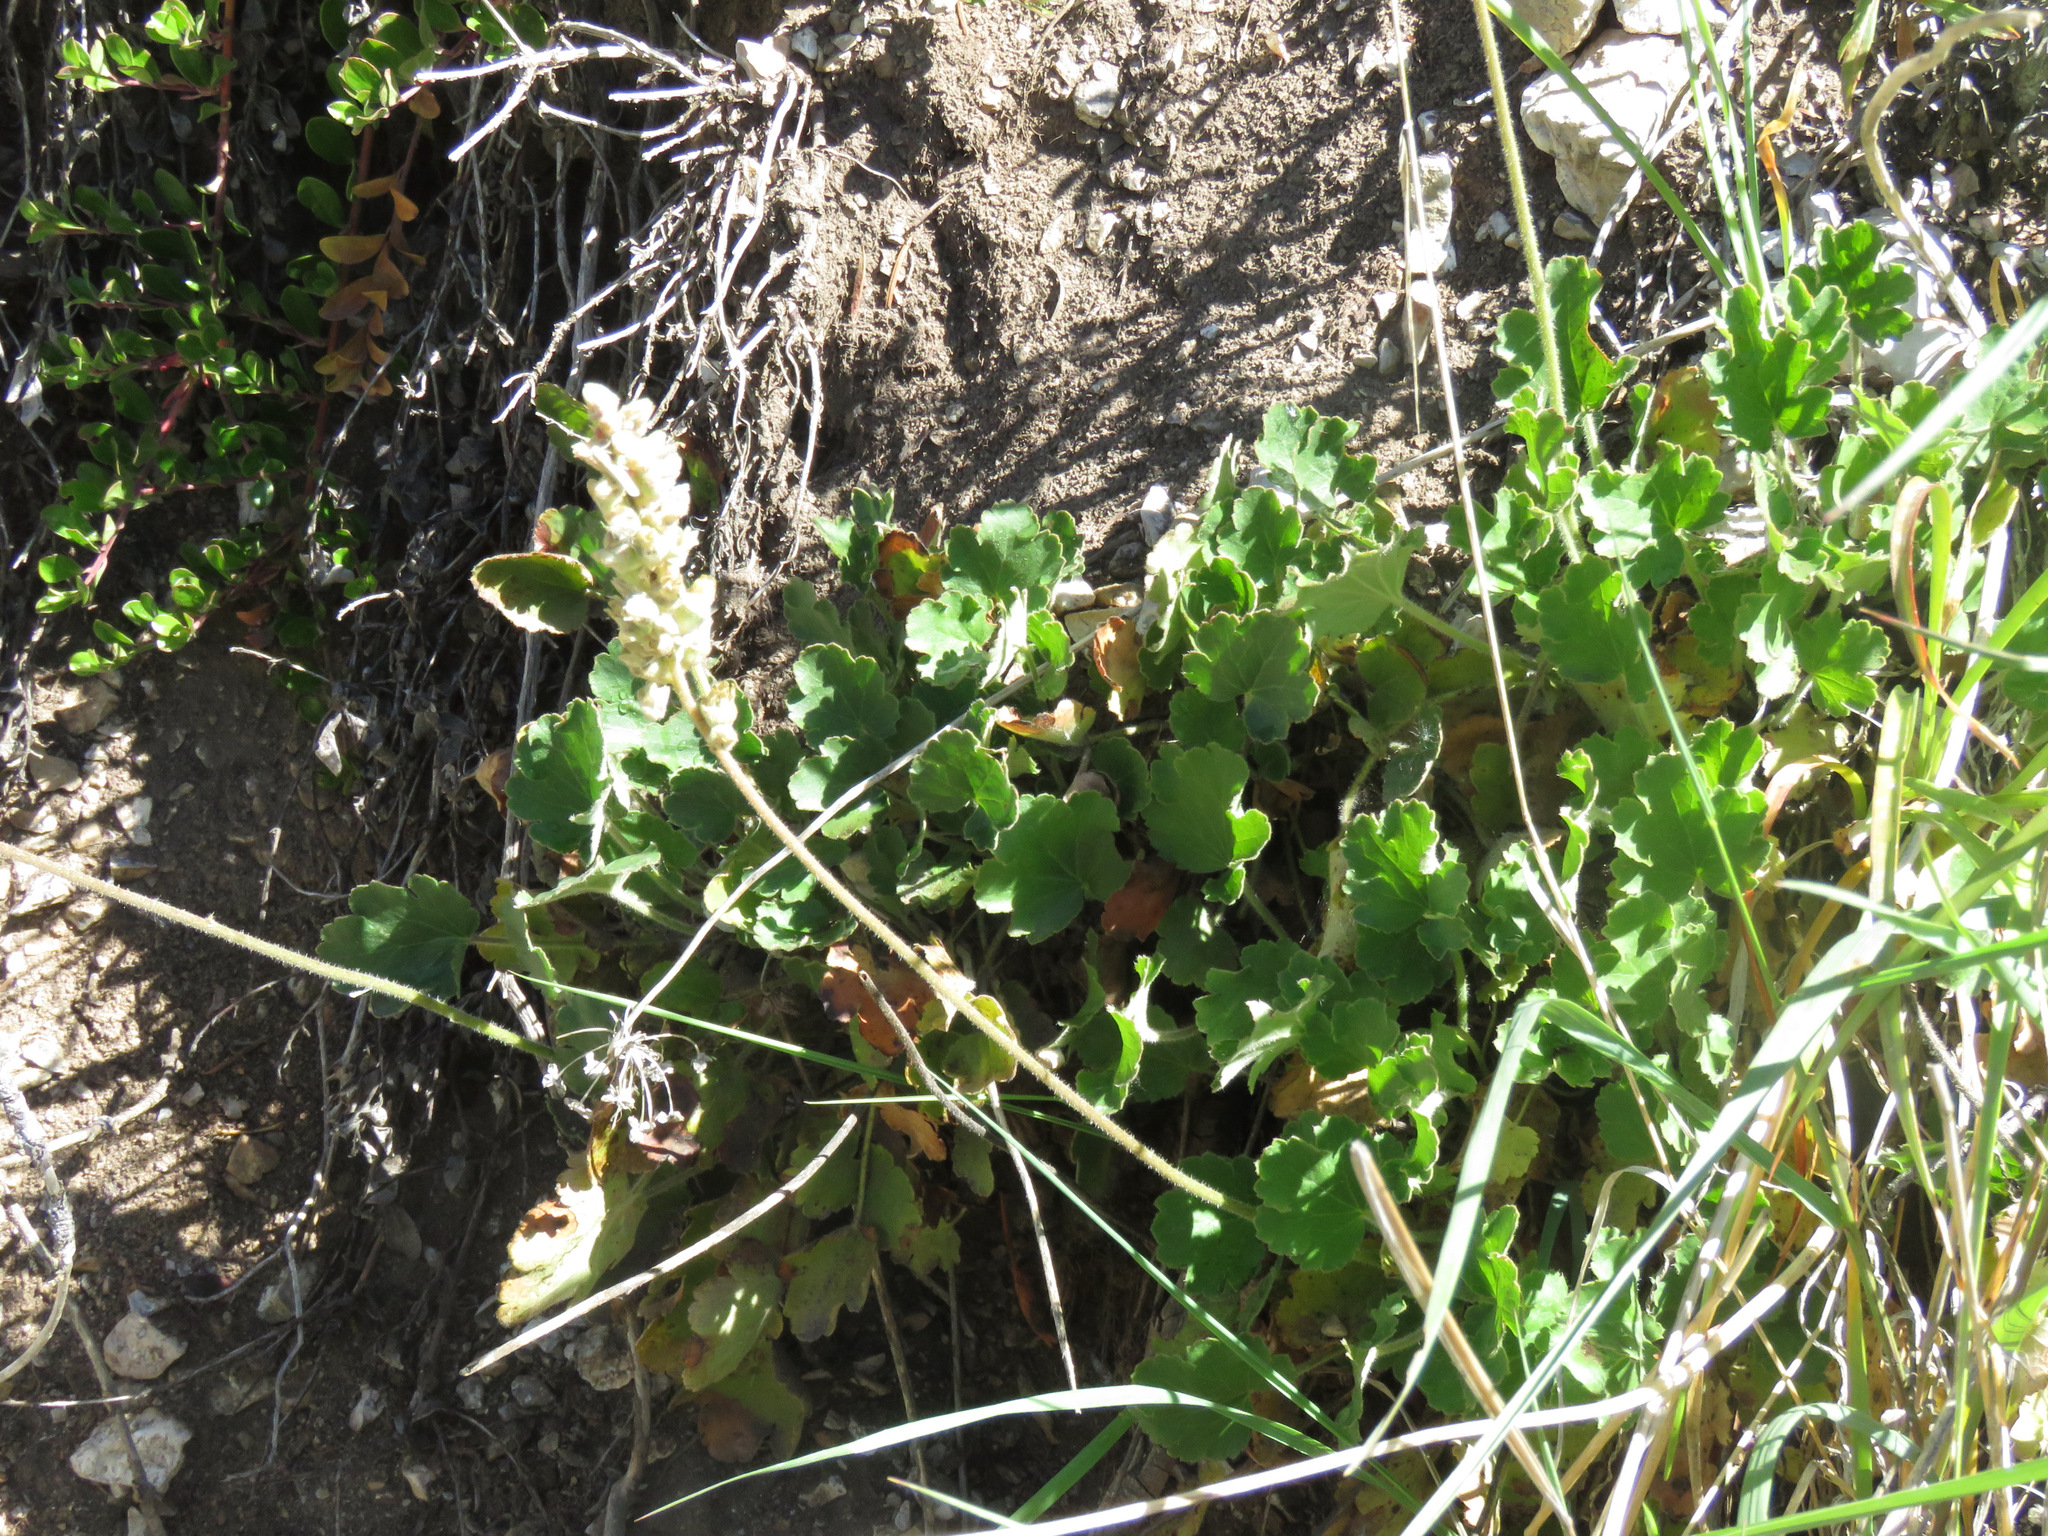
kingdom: Plantae
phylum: Tracheophyta
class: Magnoliopsida
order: Saxifragales
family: Saxifragaceae
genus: Heuchera
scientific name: Heuchera cylindrica
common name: Mat alumroot
